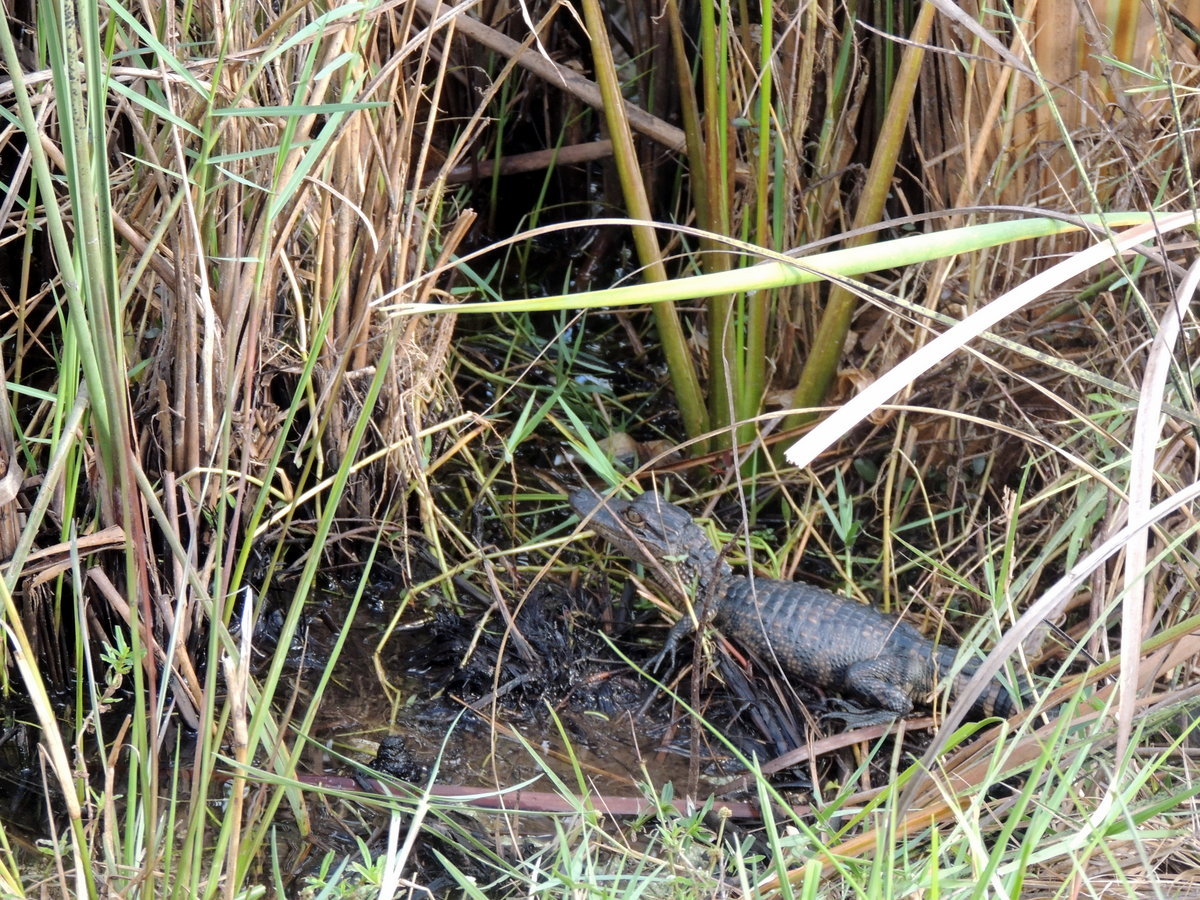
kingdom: Animalia
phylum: Chordata
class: Crocodylia
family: Alligatoridae
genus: Alligator
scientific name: Alligator mississippiensis
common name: American alligator
